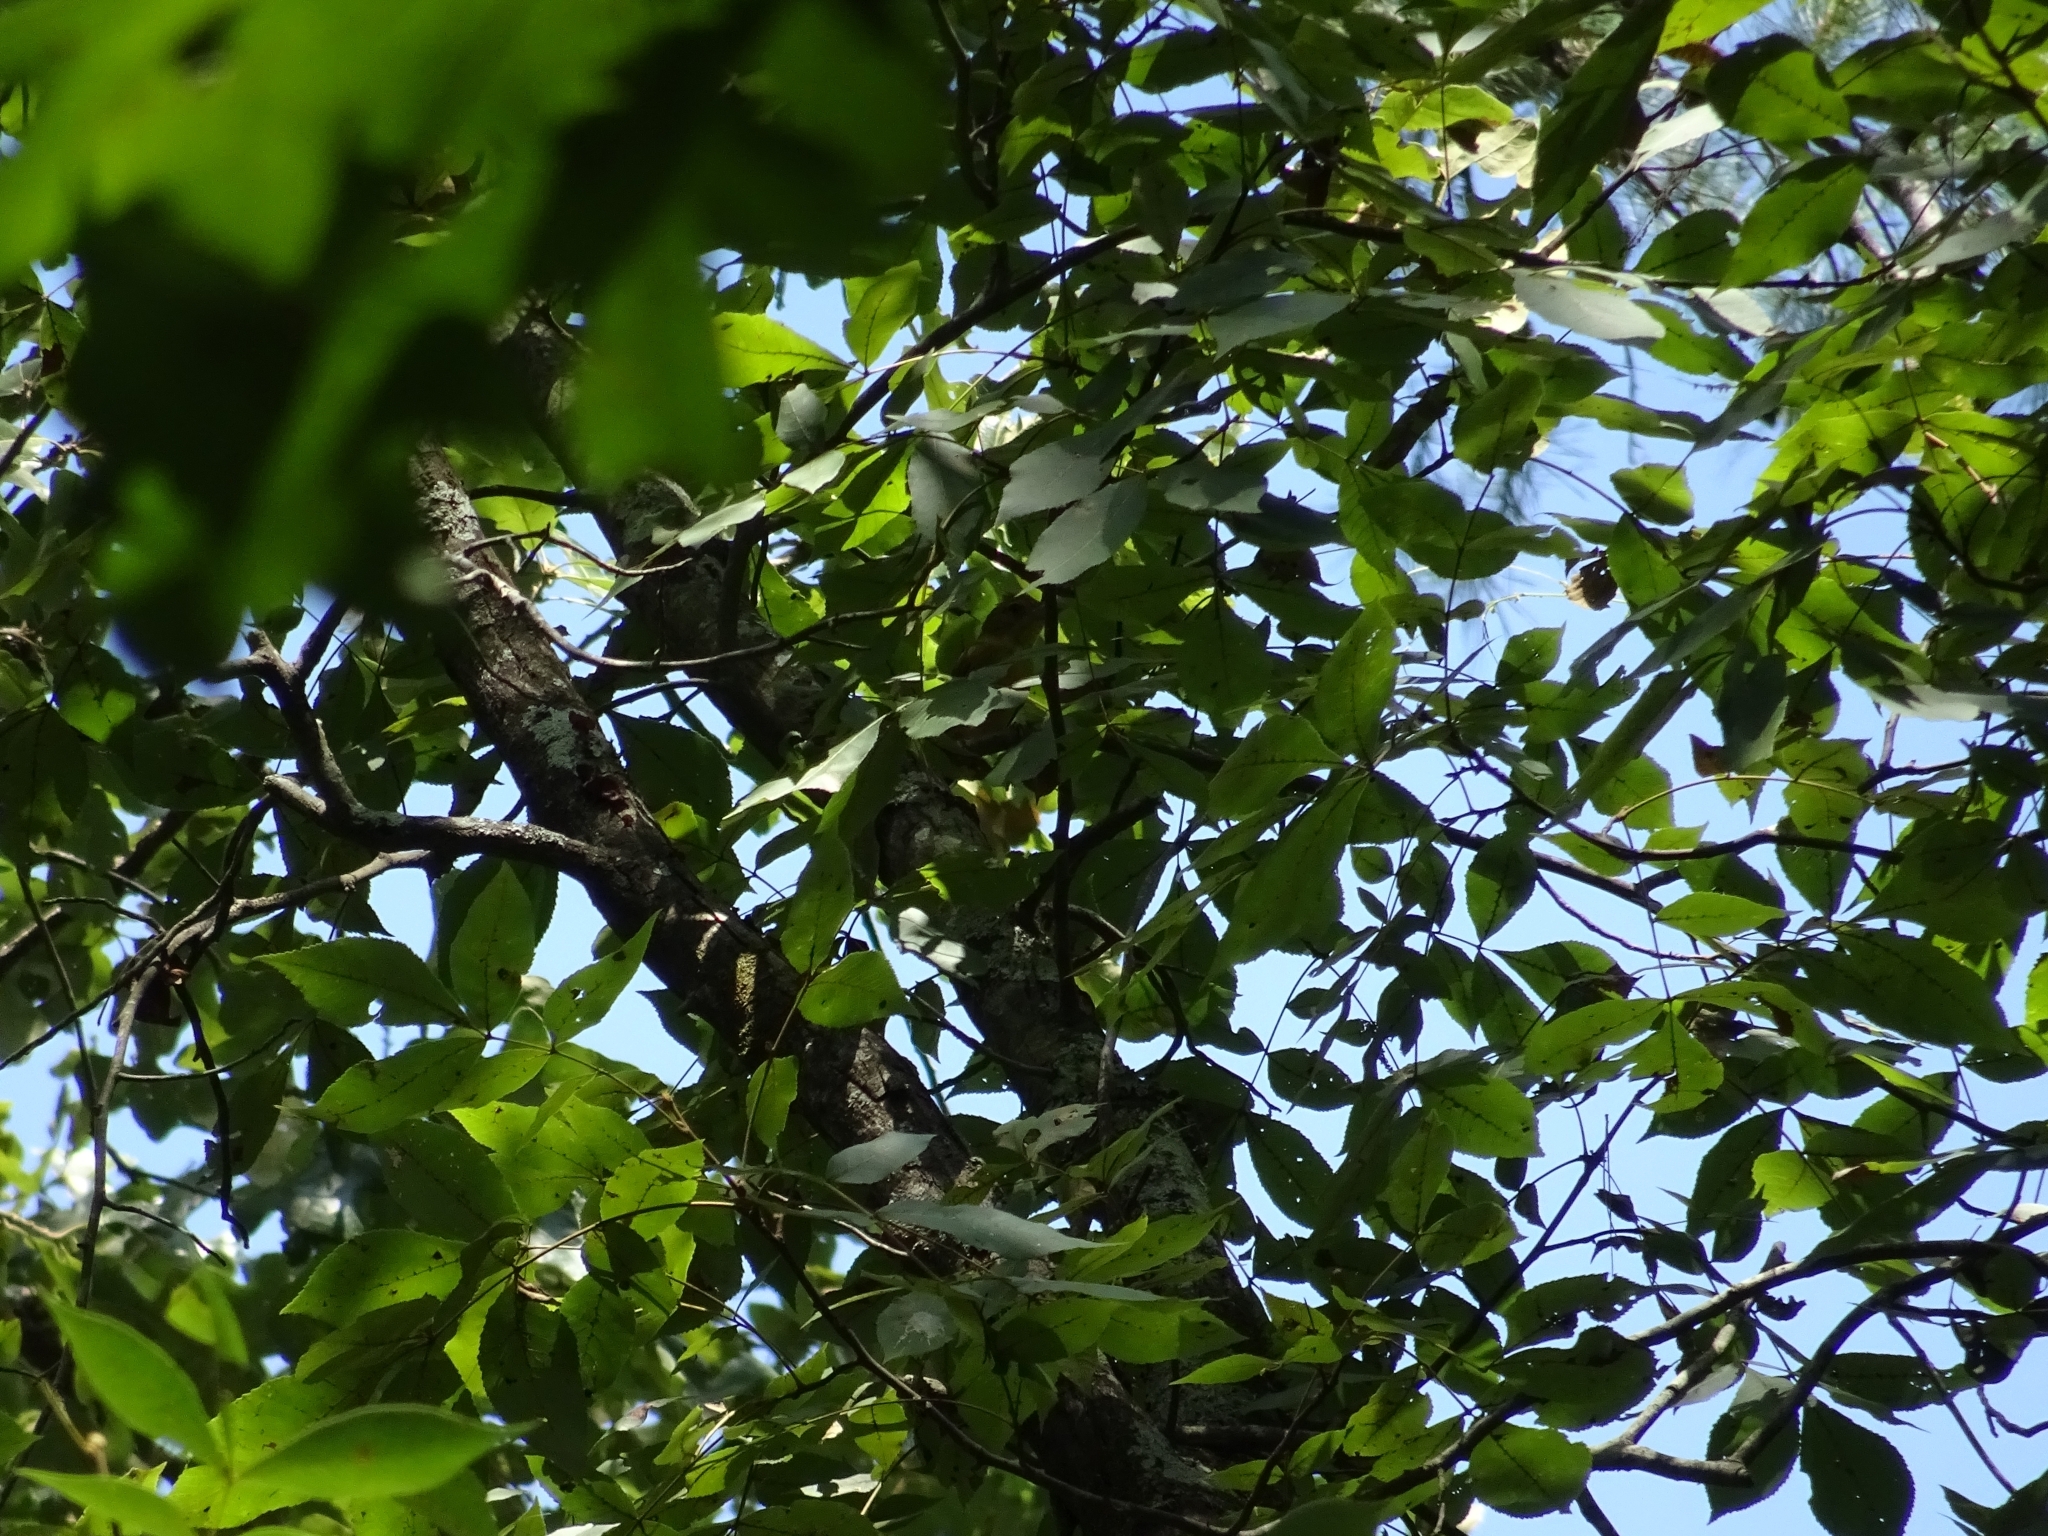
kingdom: Animalia
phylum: Chordata
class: Aves
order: Passeriformes
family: Cardinalidae
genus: Piranga
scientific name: Piranga rubra
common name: Summer tanager
